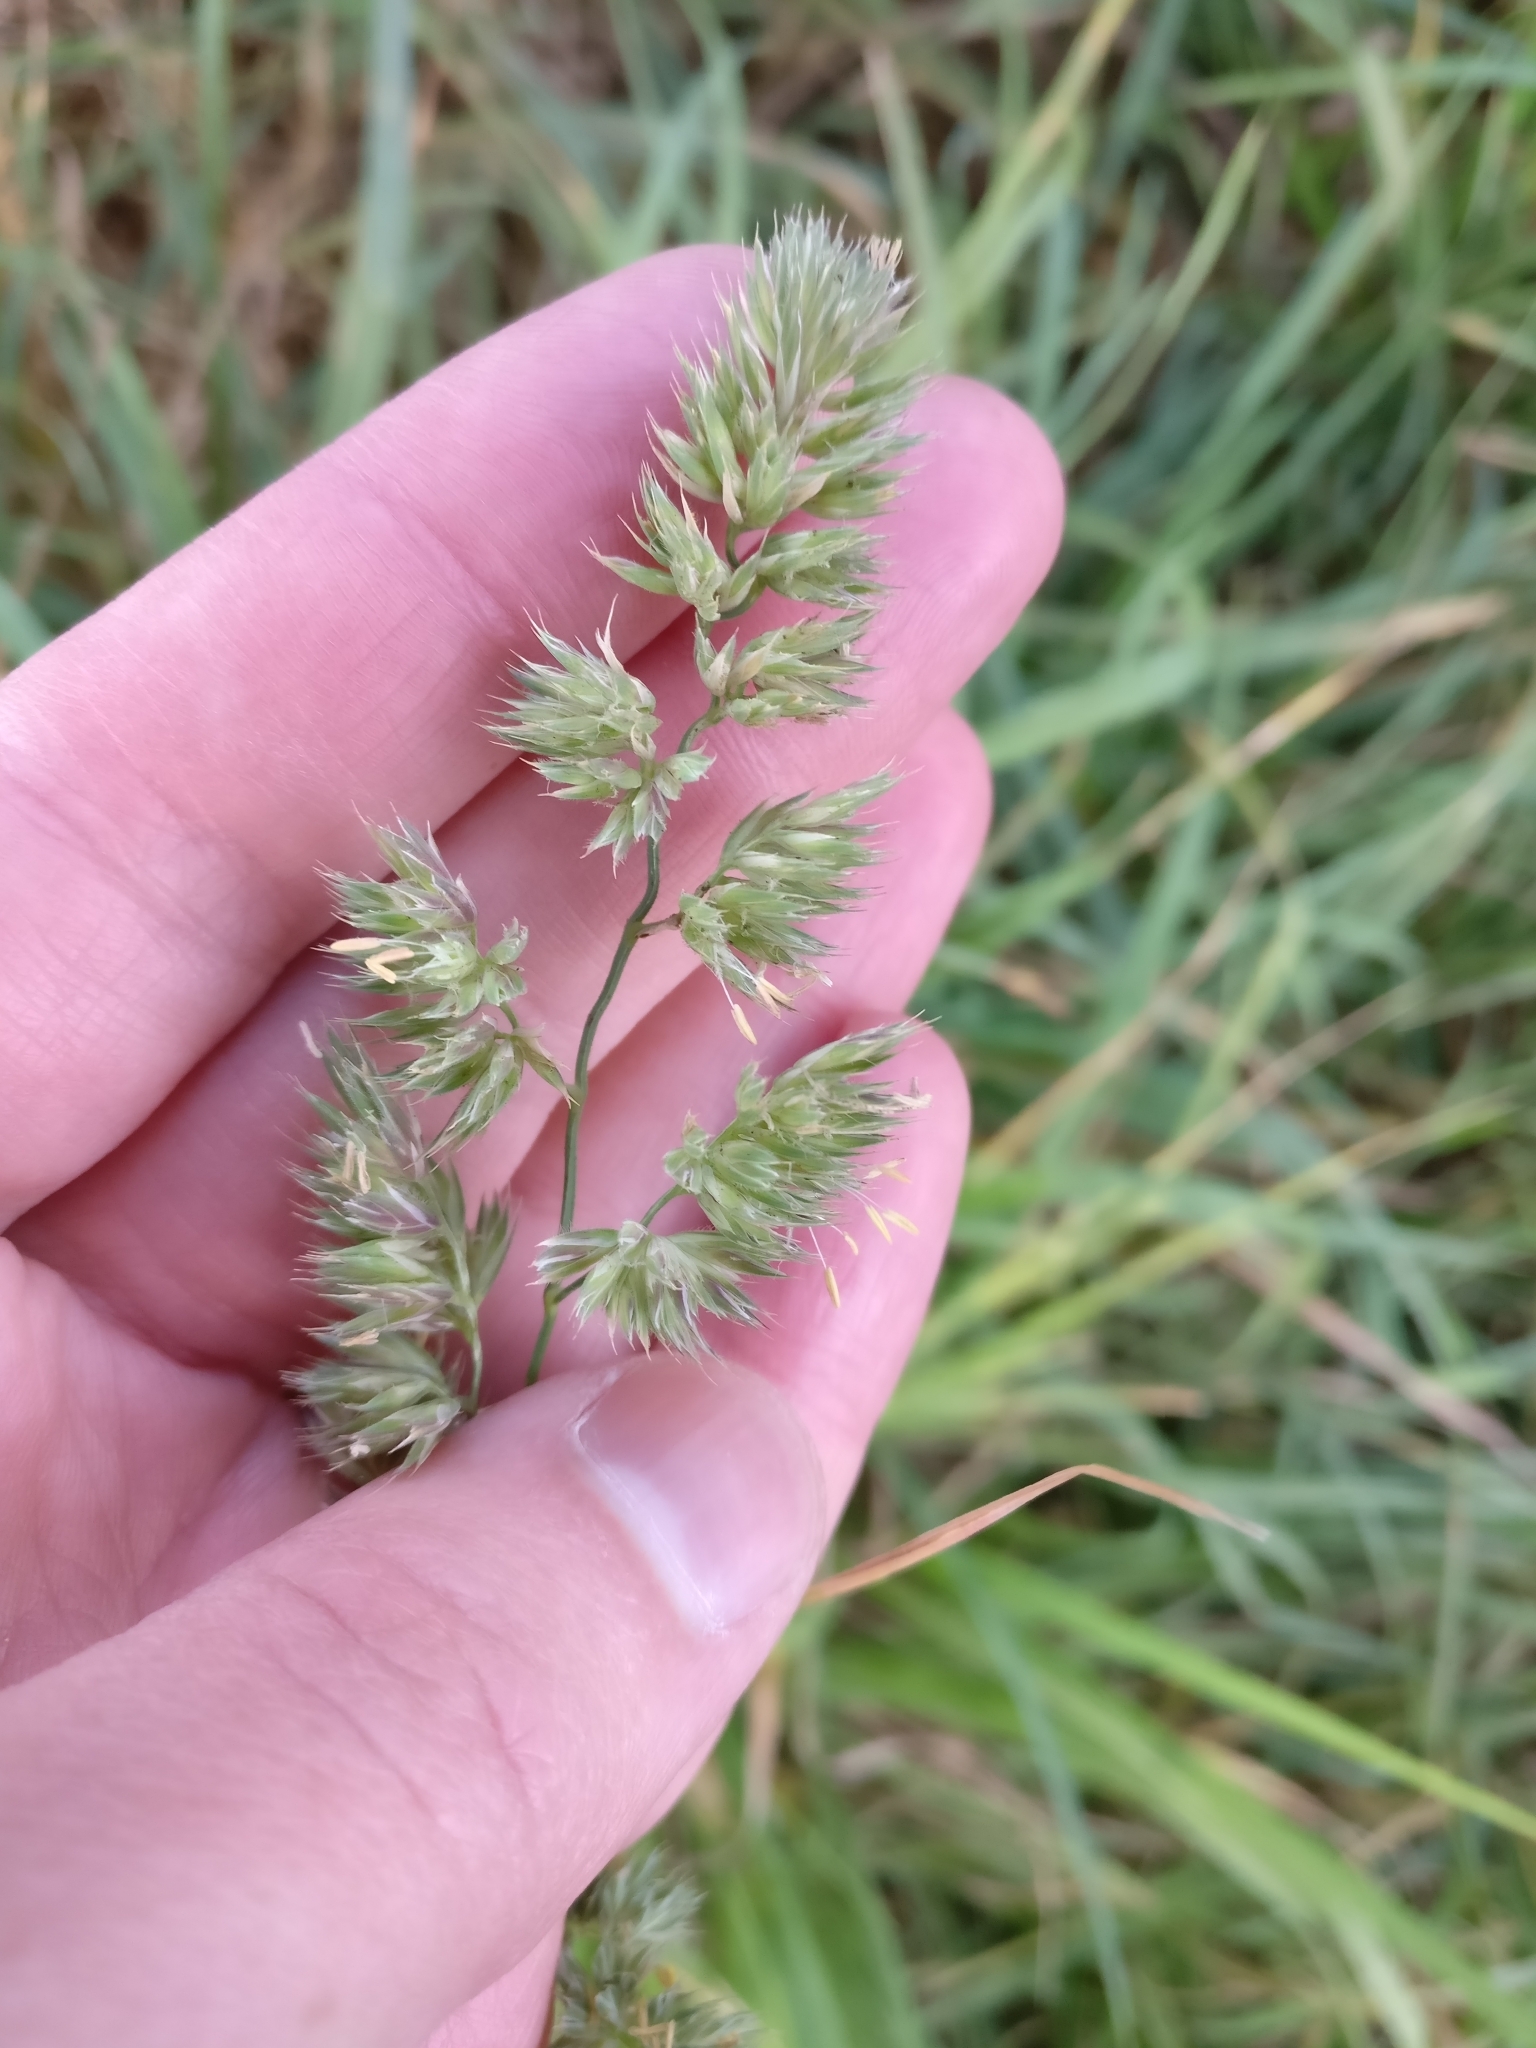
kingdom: Plantae
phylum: Tracheophyta
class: Liliopsida
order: Poales
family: Poaceae
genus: Dactylis
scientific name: Dactylis glomerata
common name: Orchardgrass
